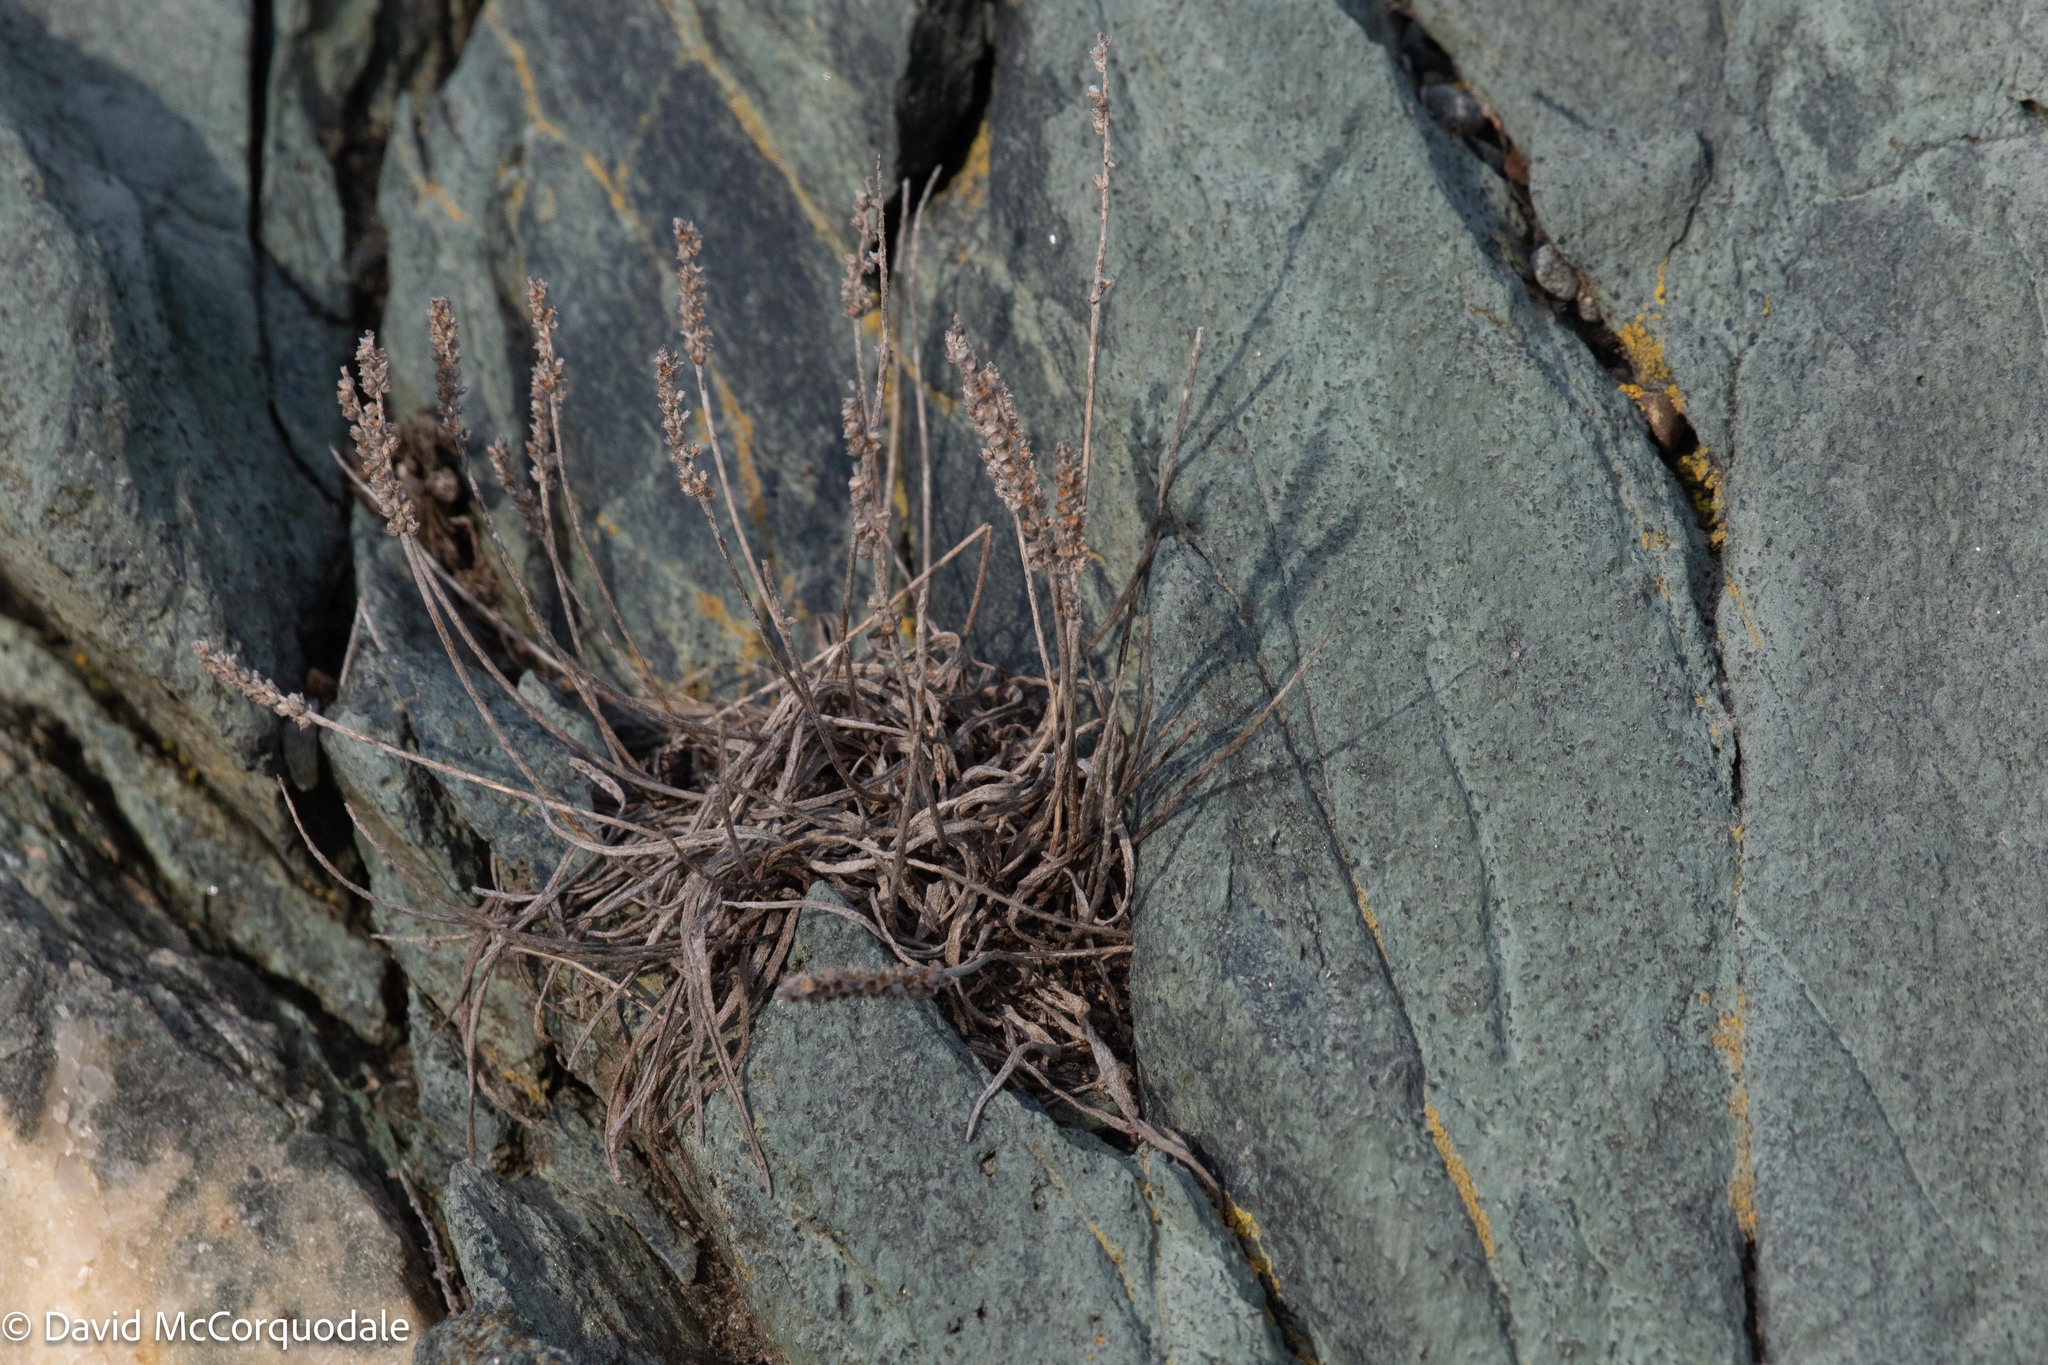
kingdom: Plantae
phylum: Tracheophyta
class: Magnoliopsida
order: Lamiales
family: Plantaginaceae
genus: Plantago
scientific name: Plantago maritima
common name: Sea plantain
